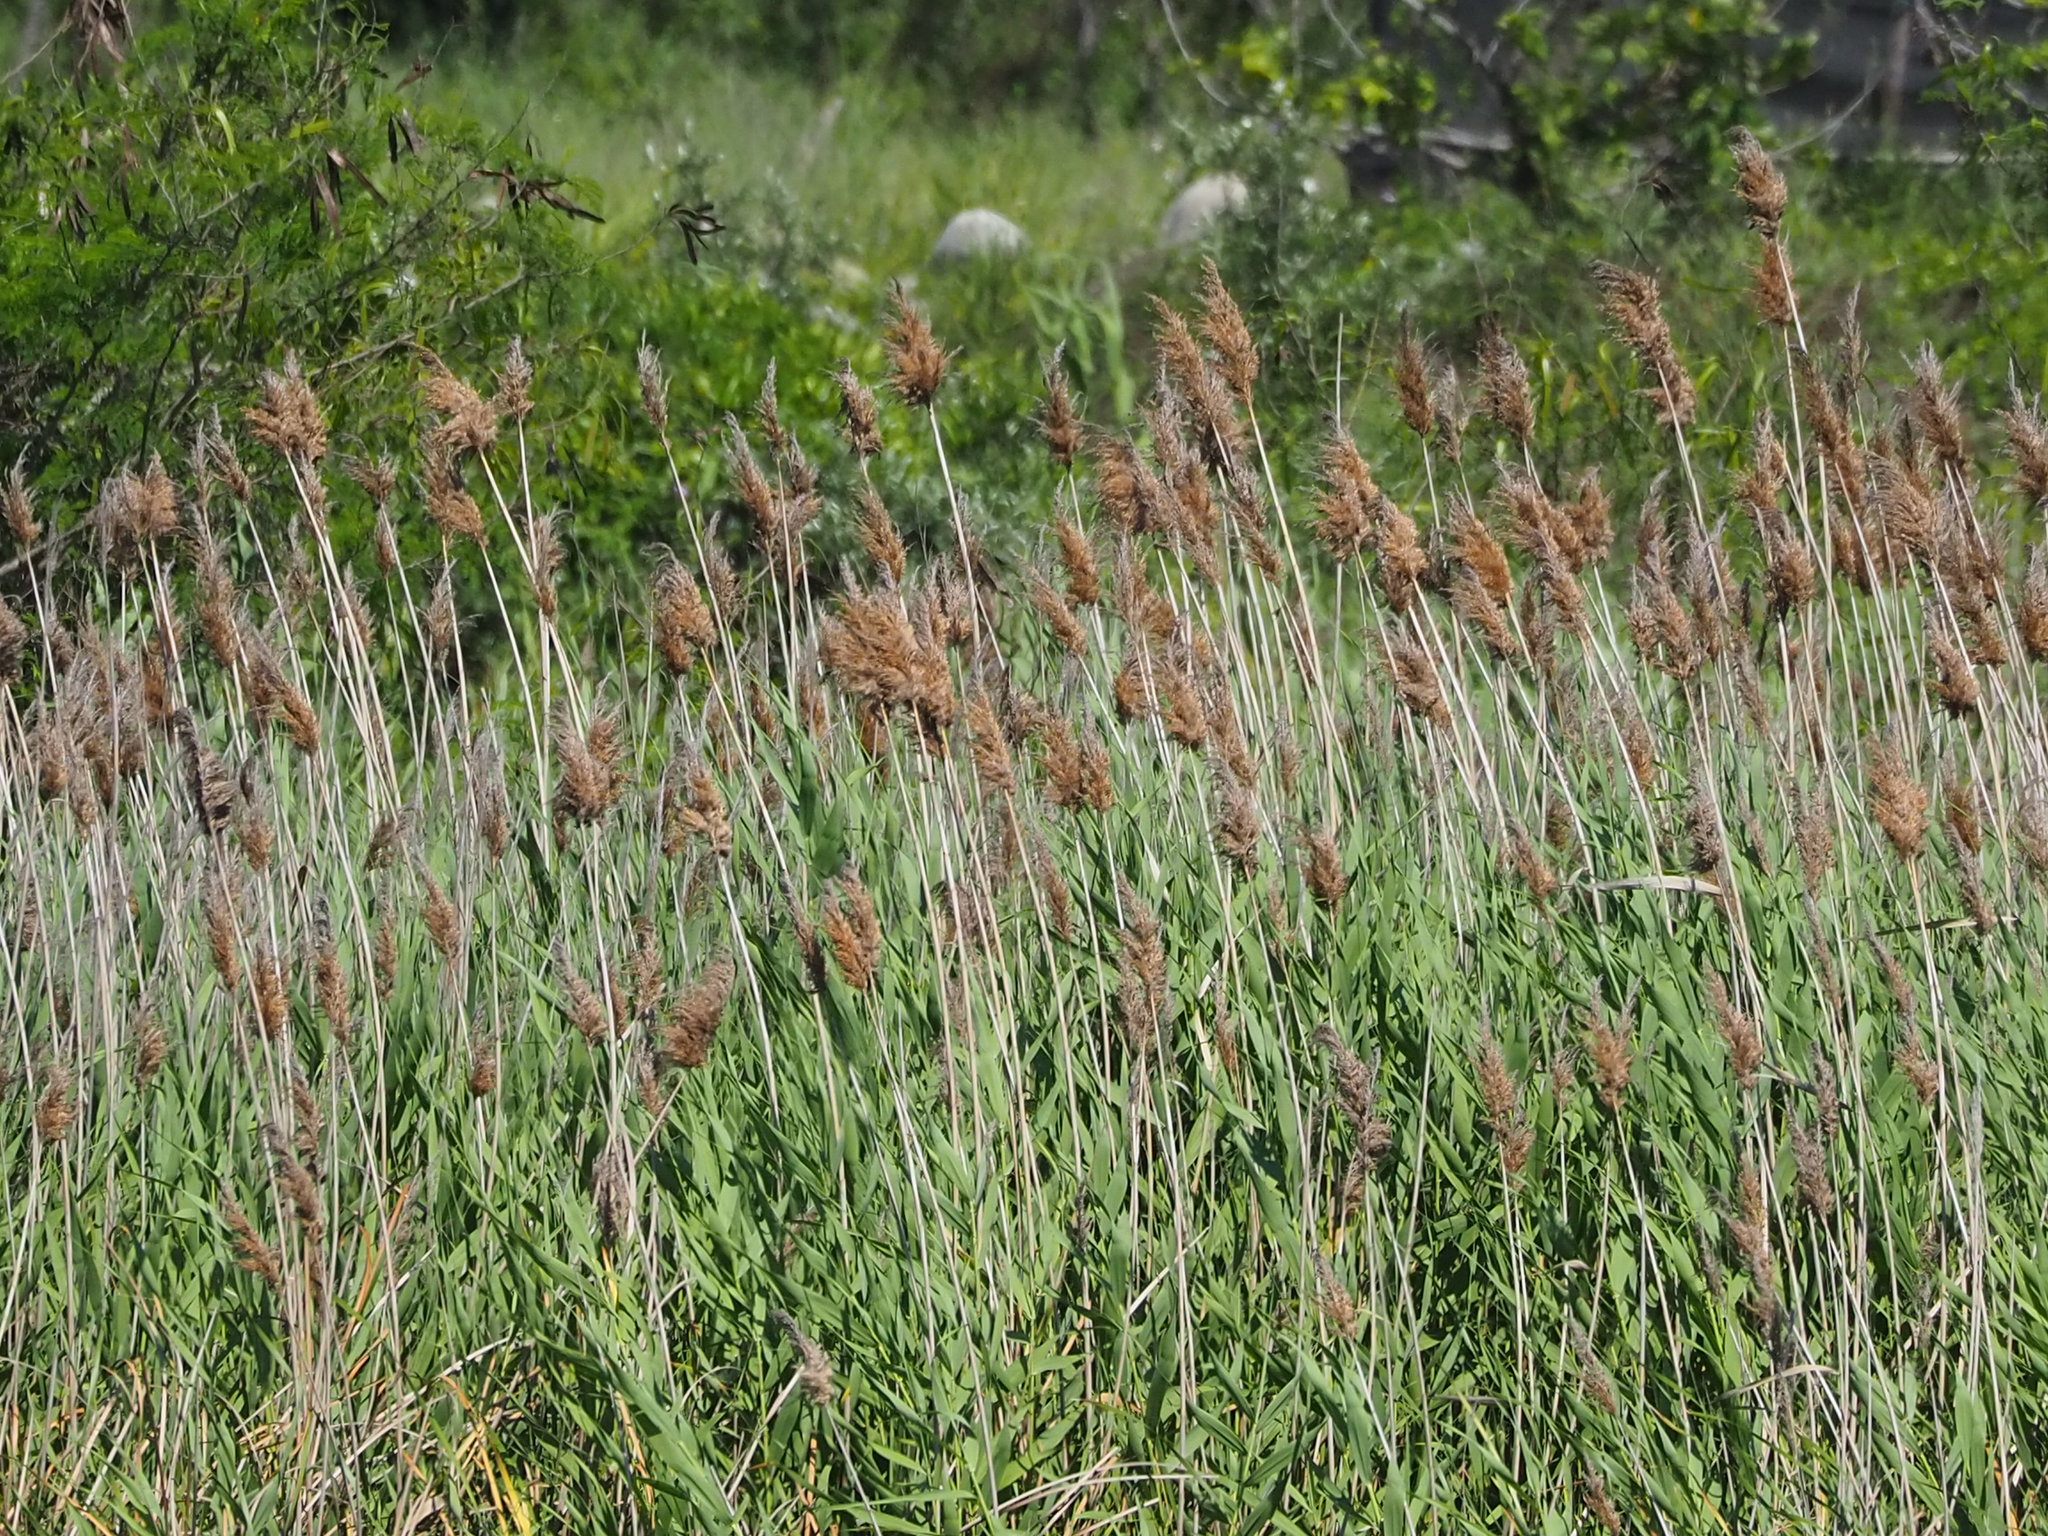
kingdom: Plantae
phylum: Tracheophyta
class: Liliopsida
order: Poales
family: Poaceae
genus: Phragmites
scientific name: Phragmites australis
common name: Common reed
